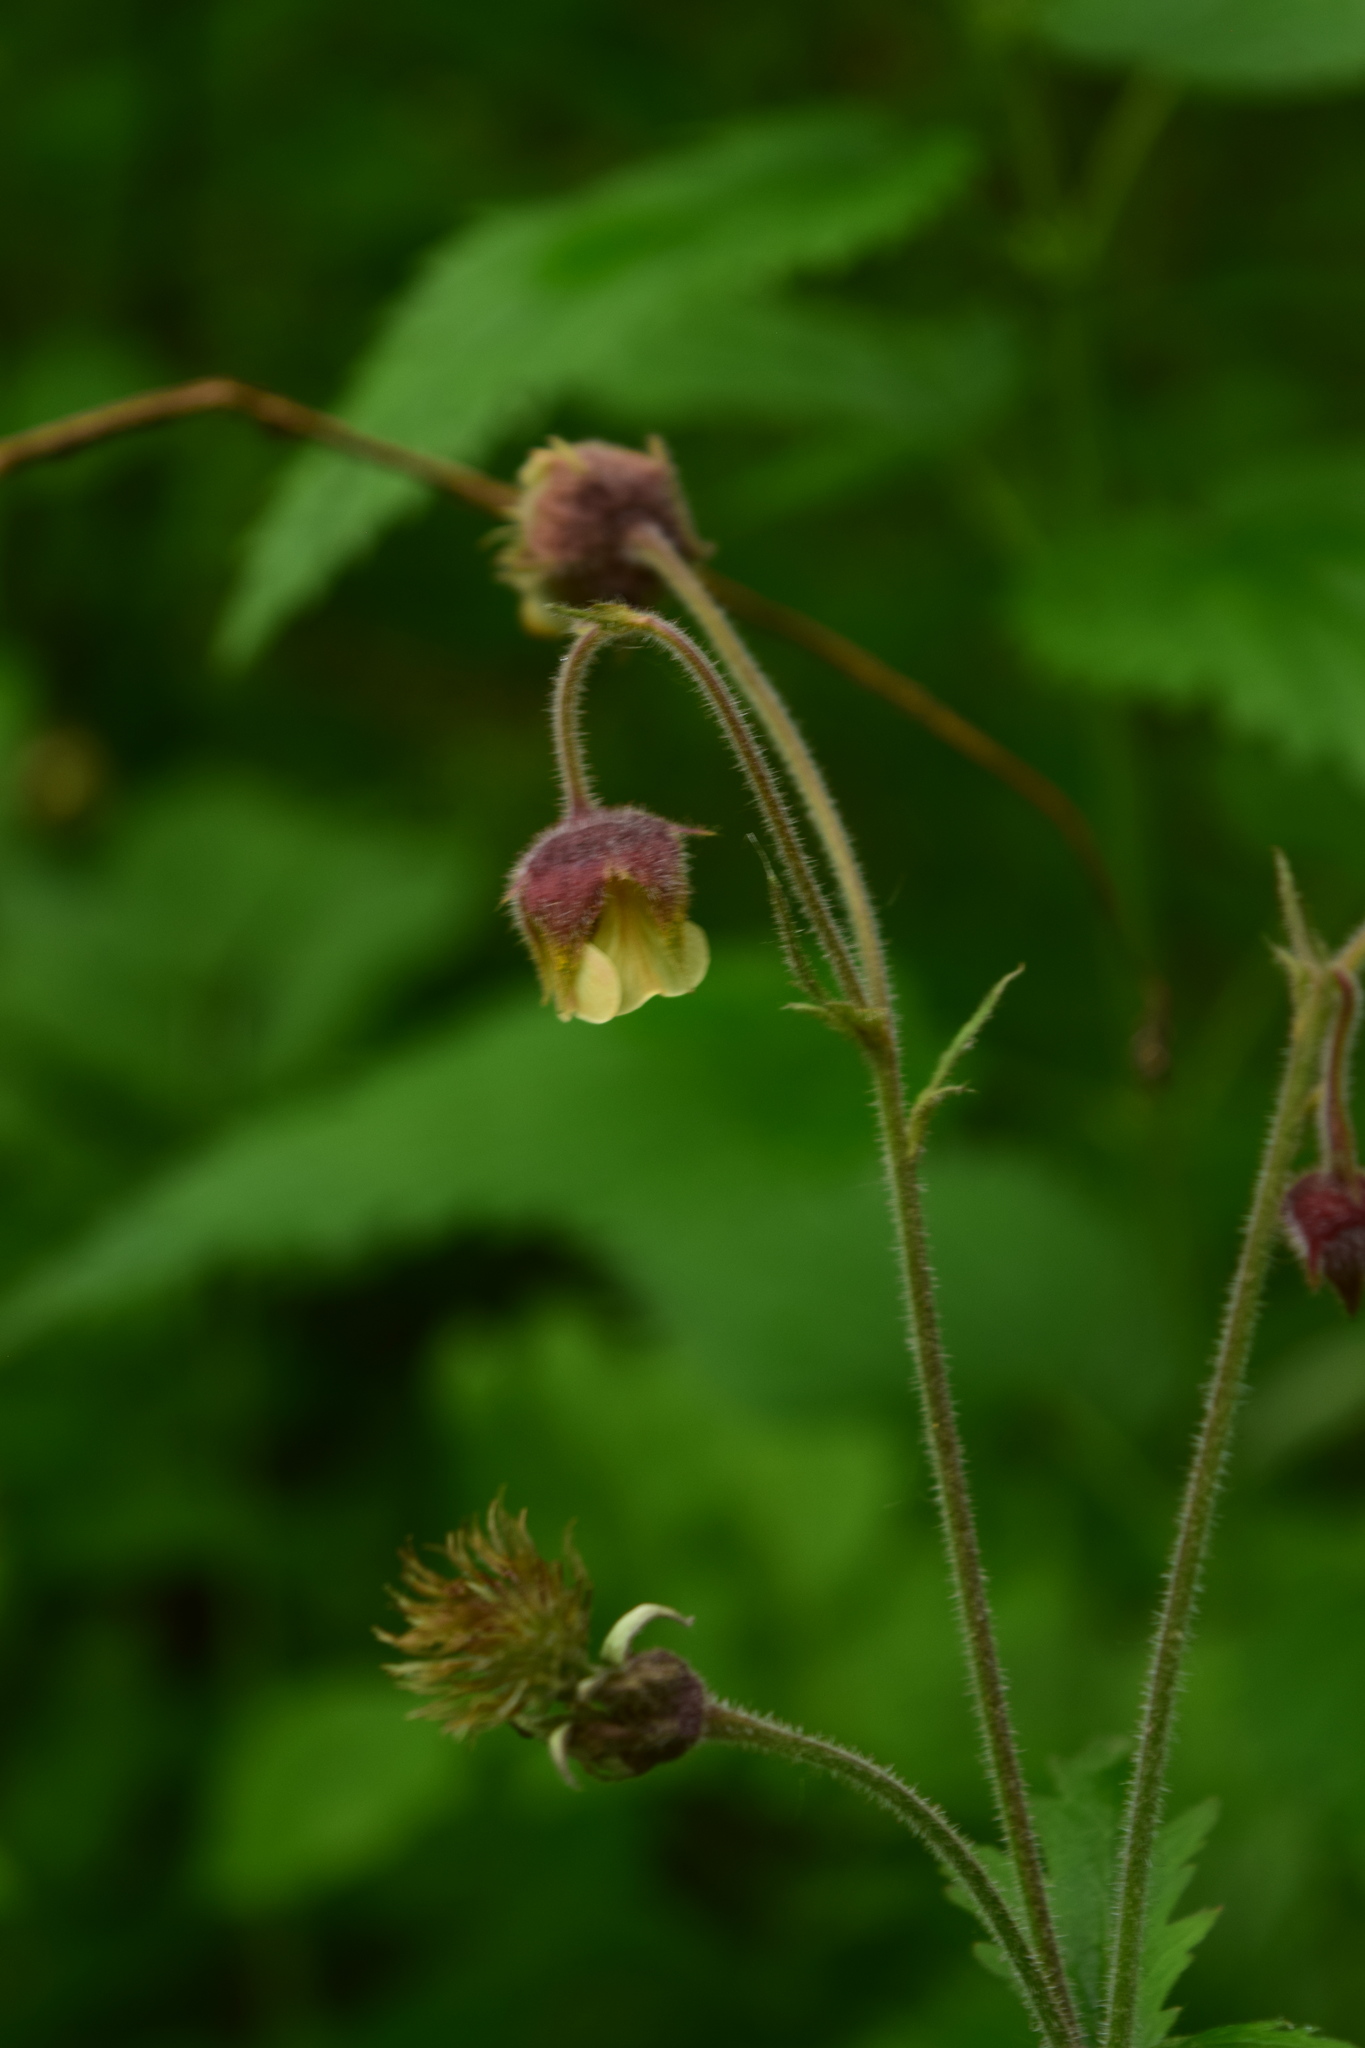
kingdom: Plantae
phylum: Tracheophyta
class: Magnoliopsida
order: Rosales
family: Rosaceae
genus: Geum
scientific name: Geum rivale
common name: Water avens
